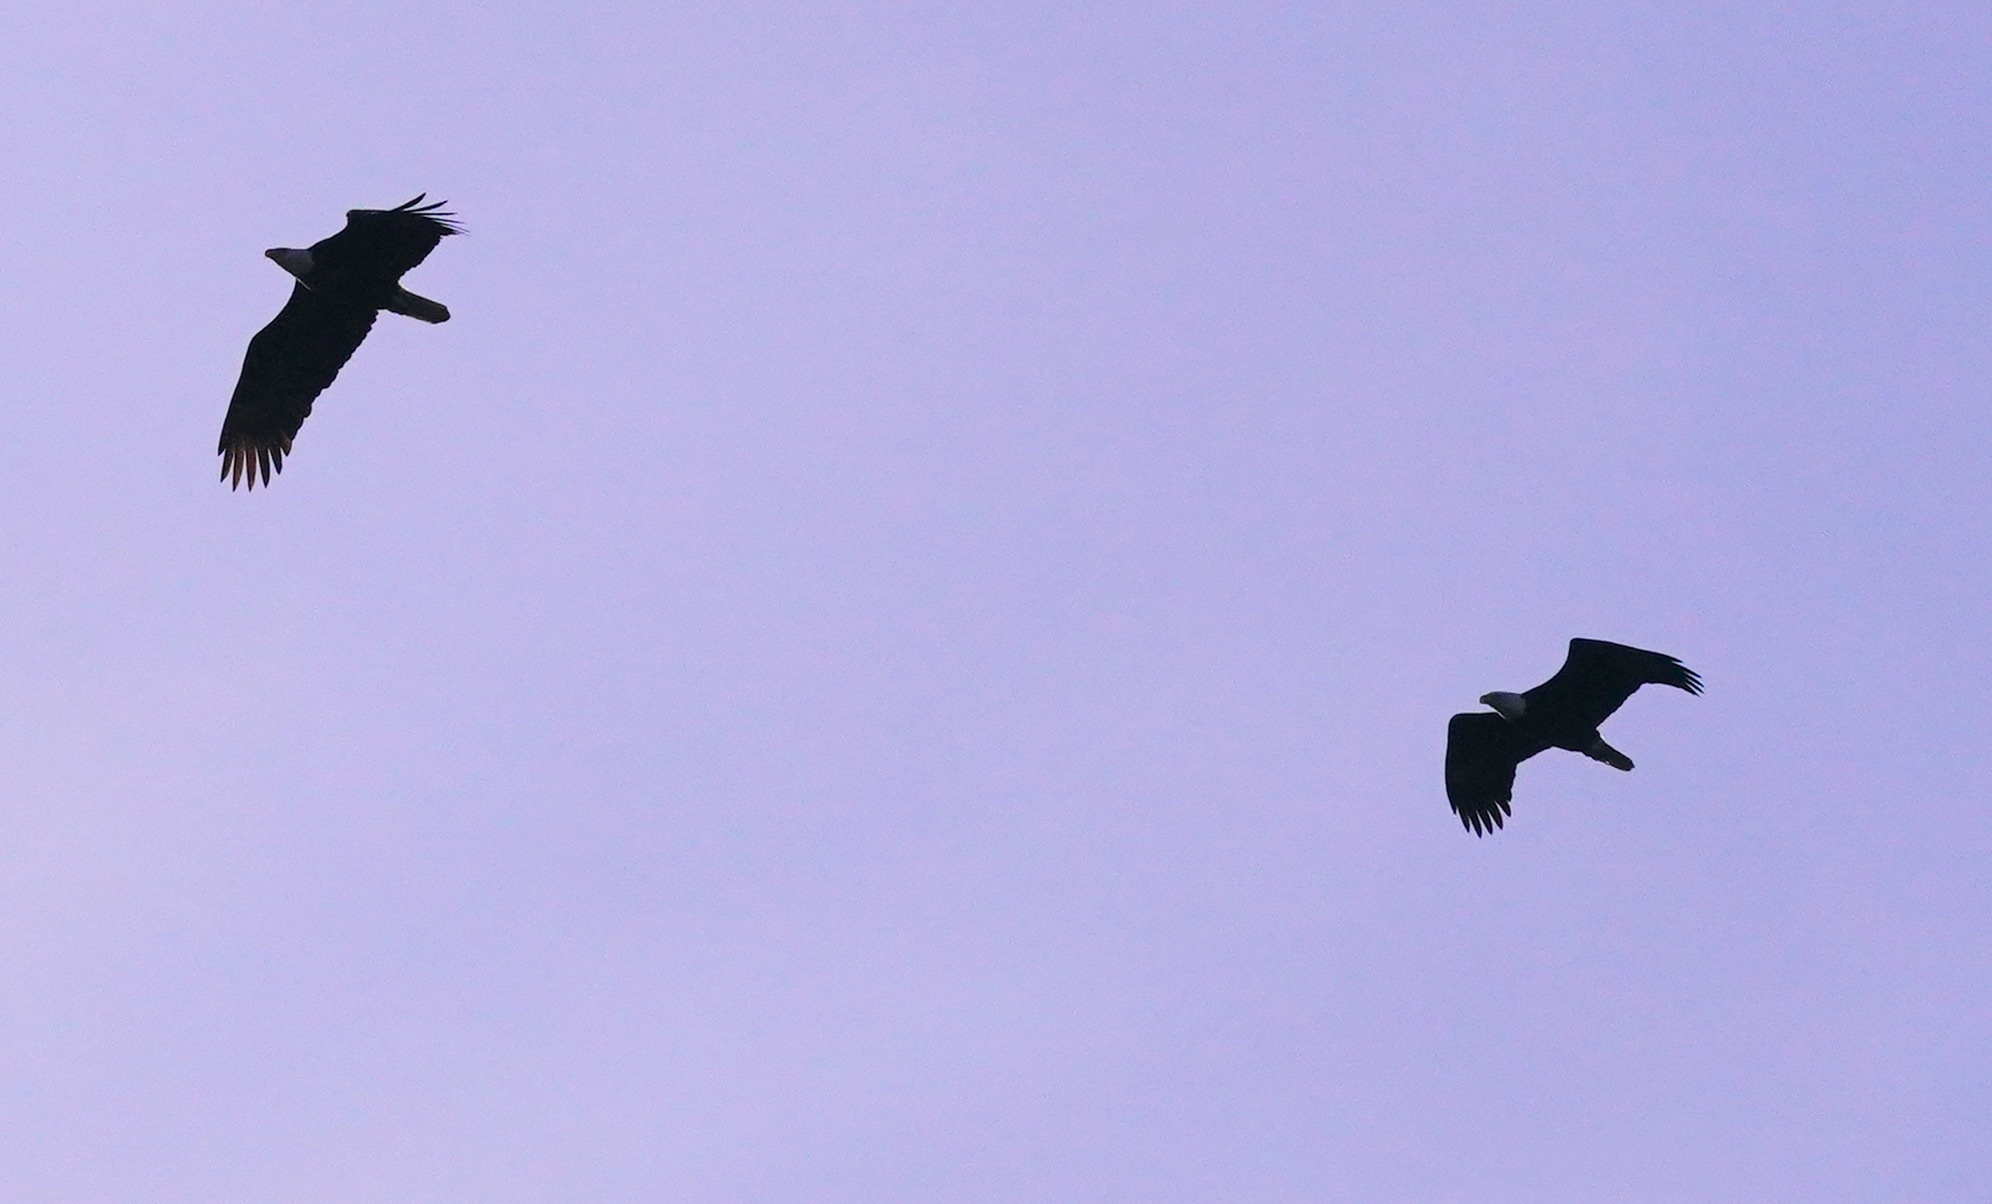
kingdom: Animalia
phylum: Chordata
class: Aves
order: Accipitriformes
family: Accipitridae
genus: Haliaeetus
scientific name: Haliaeetus leucocephalus
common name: Bald eagle
